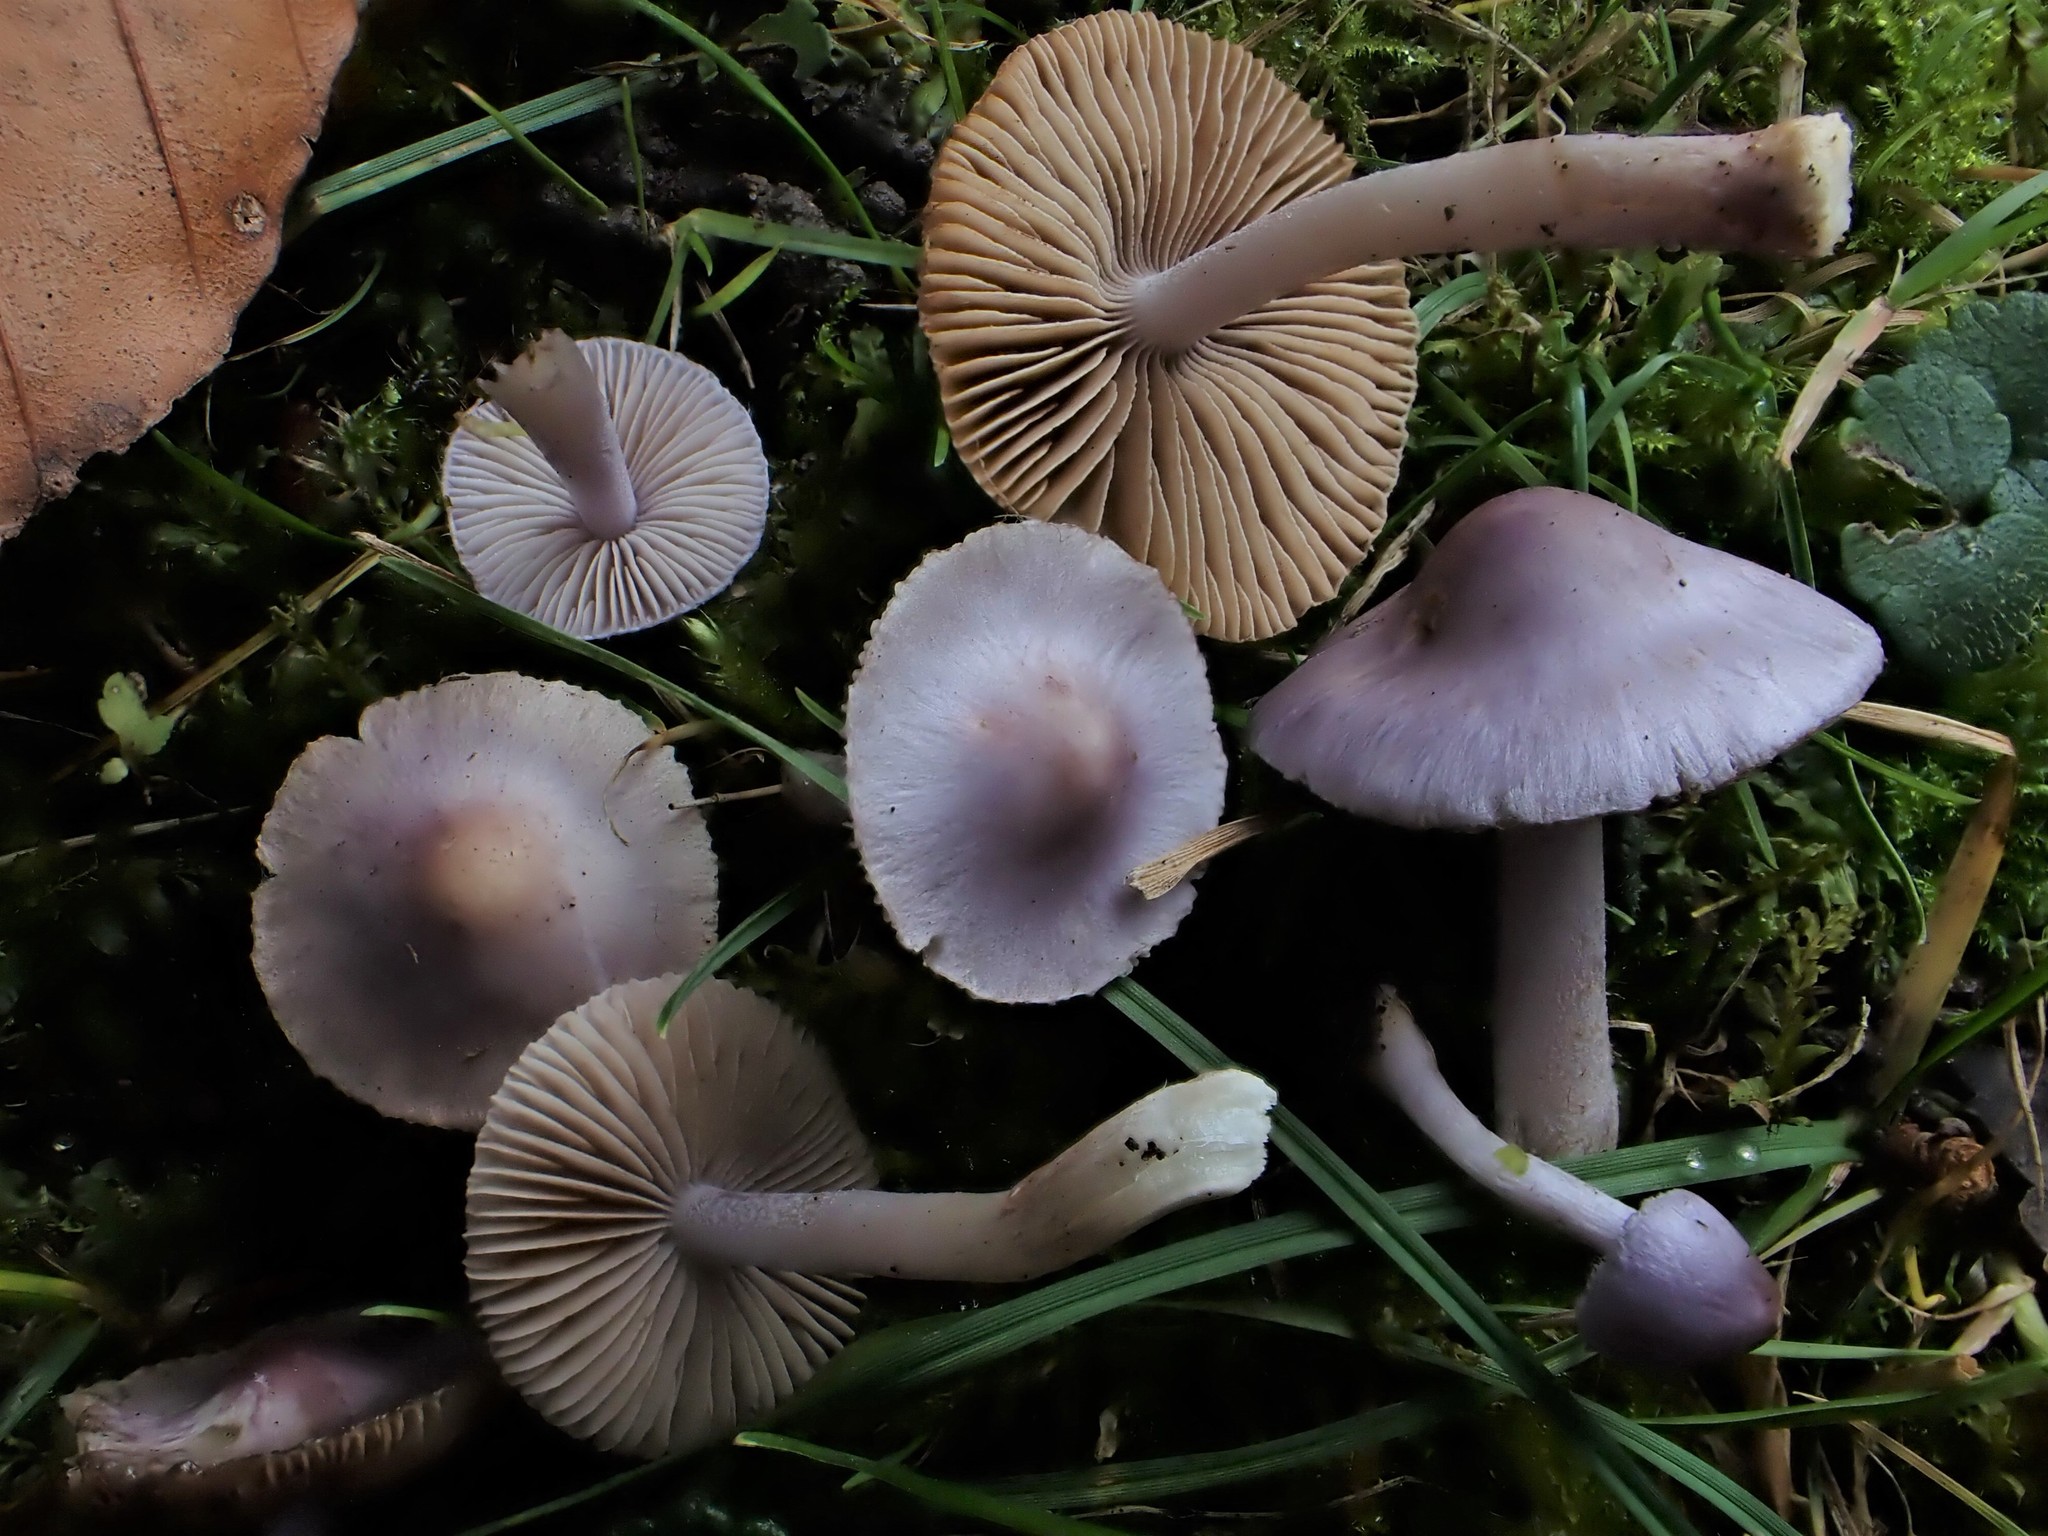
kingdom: Fungi
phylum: Basidiomycota
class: Agaricomycetes
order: Agaricales
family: Inocybaceae
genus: Inocybe
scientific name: Inocybe
